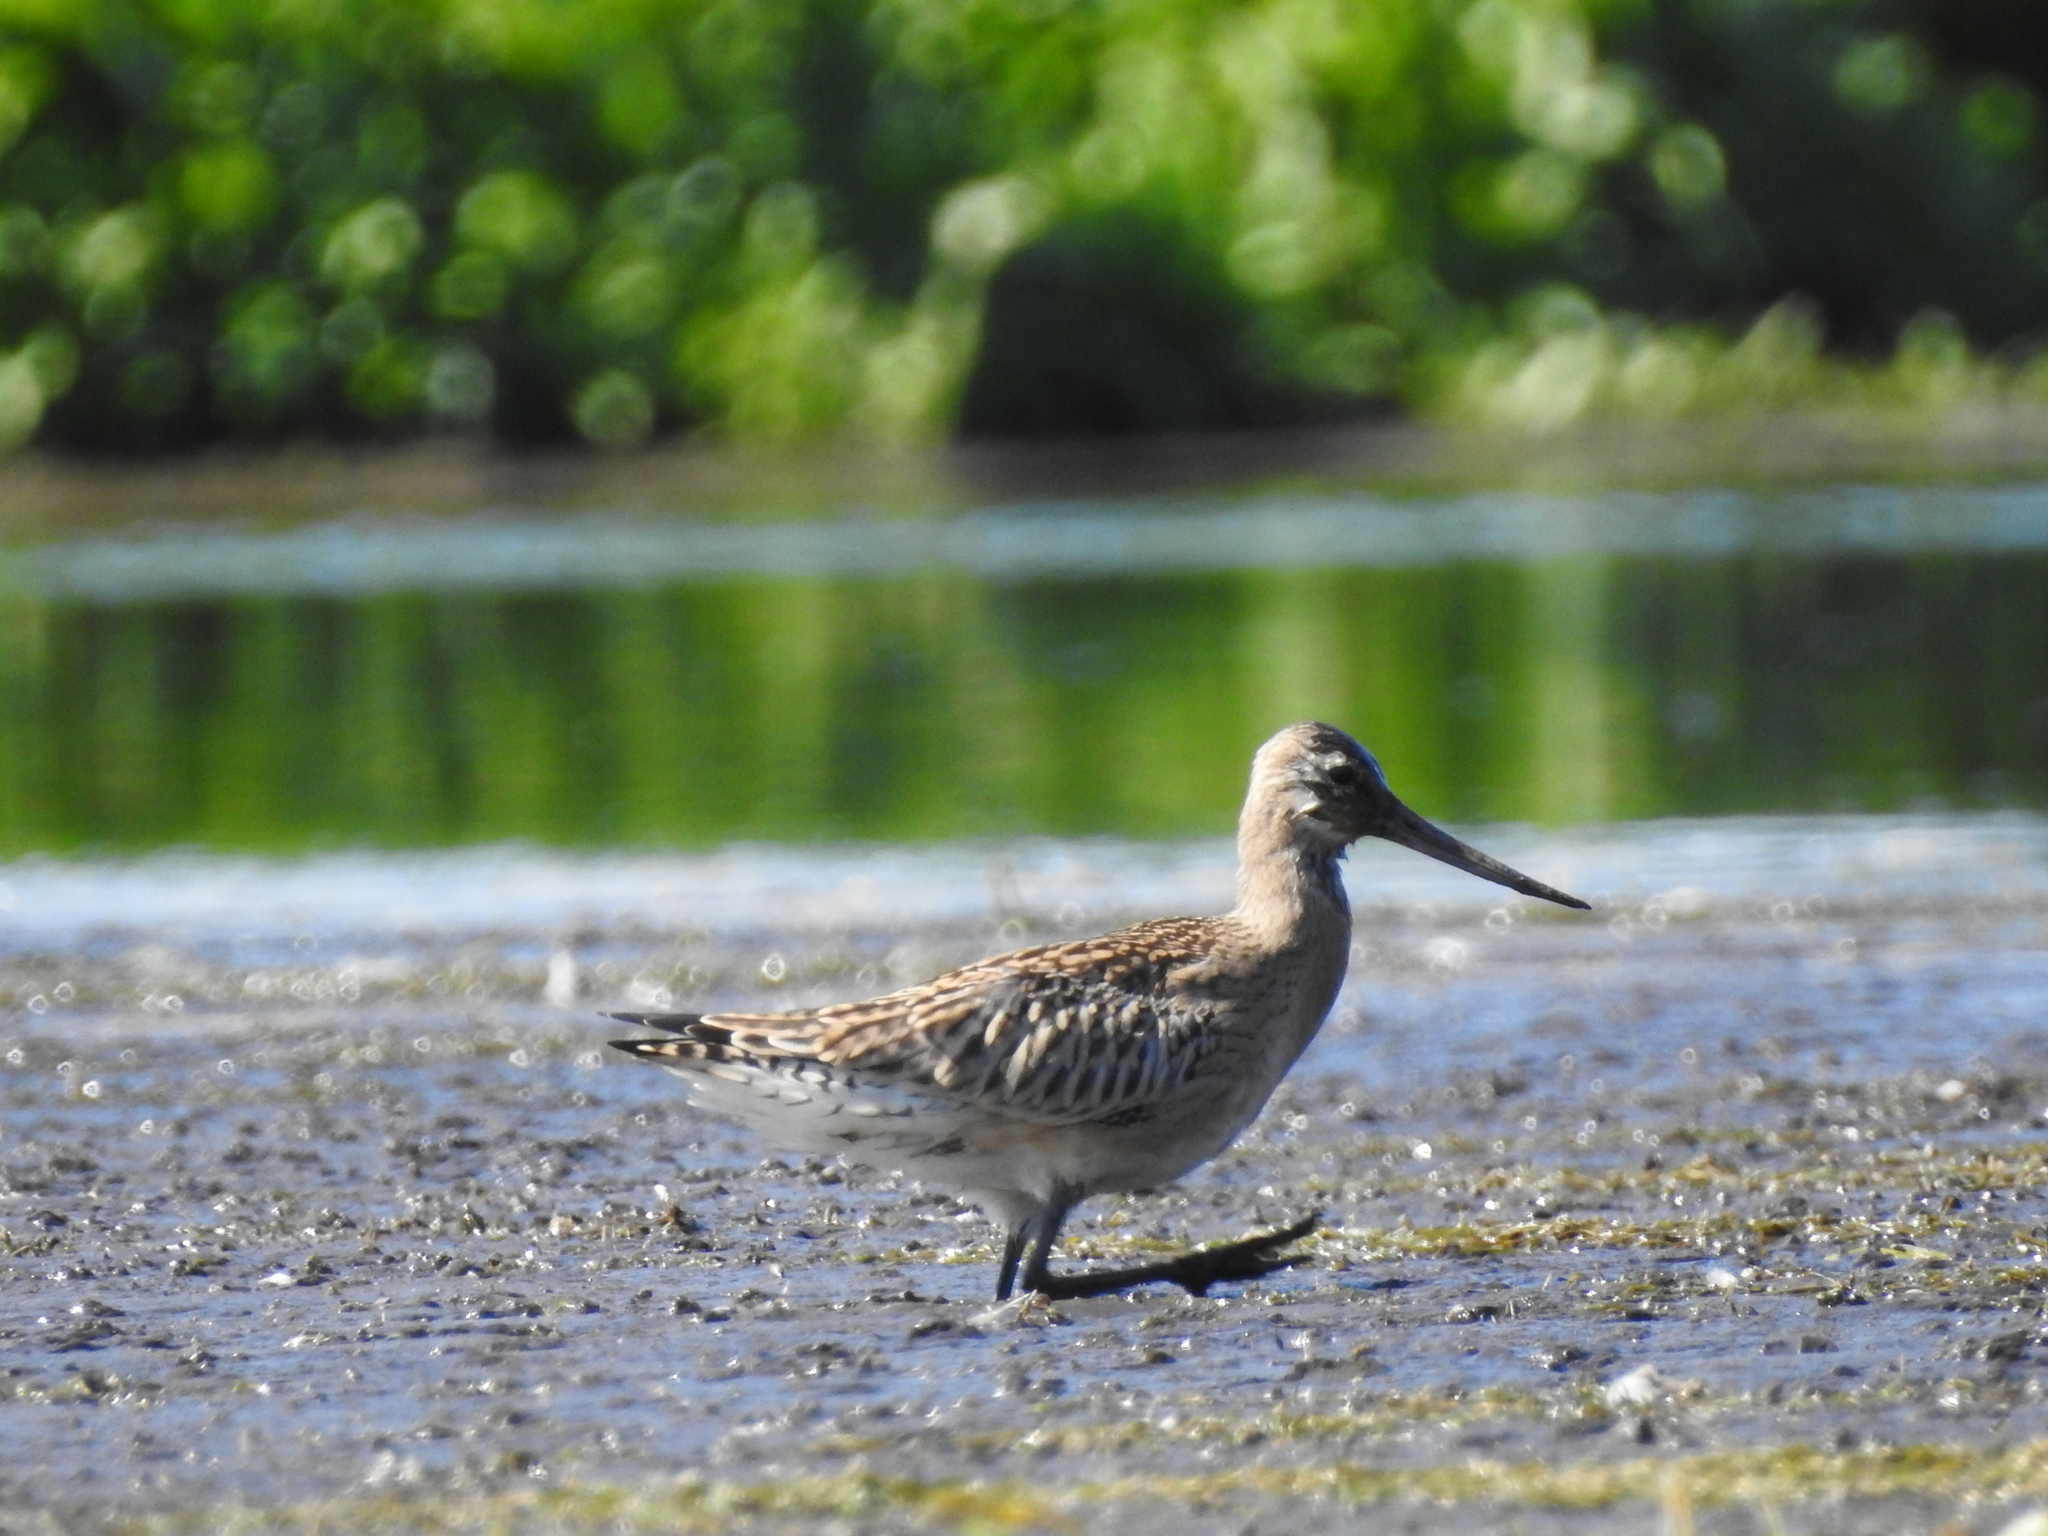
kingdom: Animalia
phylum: Chordata
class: Aves
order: Charadriiformes
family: Scolopacidae
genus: Limosa
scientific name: Limosa lapponica
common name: Bar-tailed godwit
